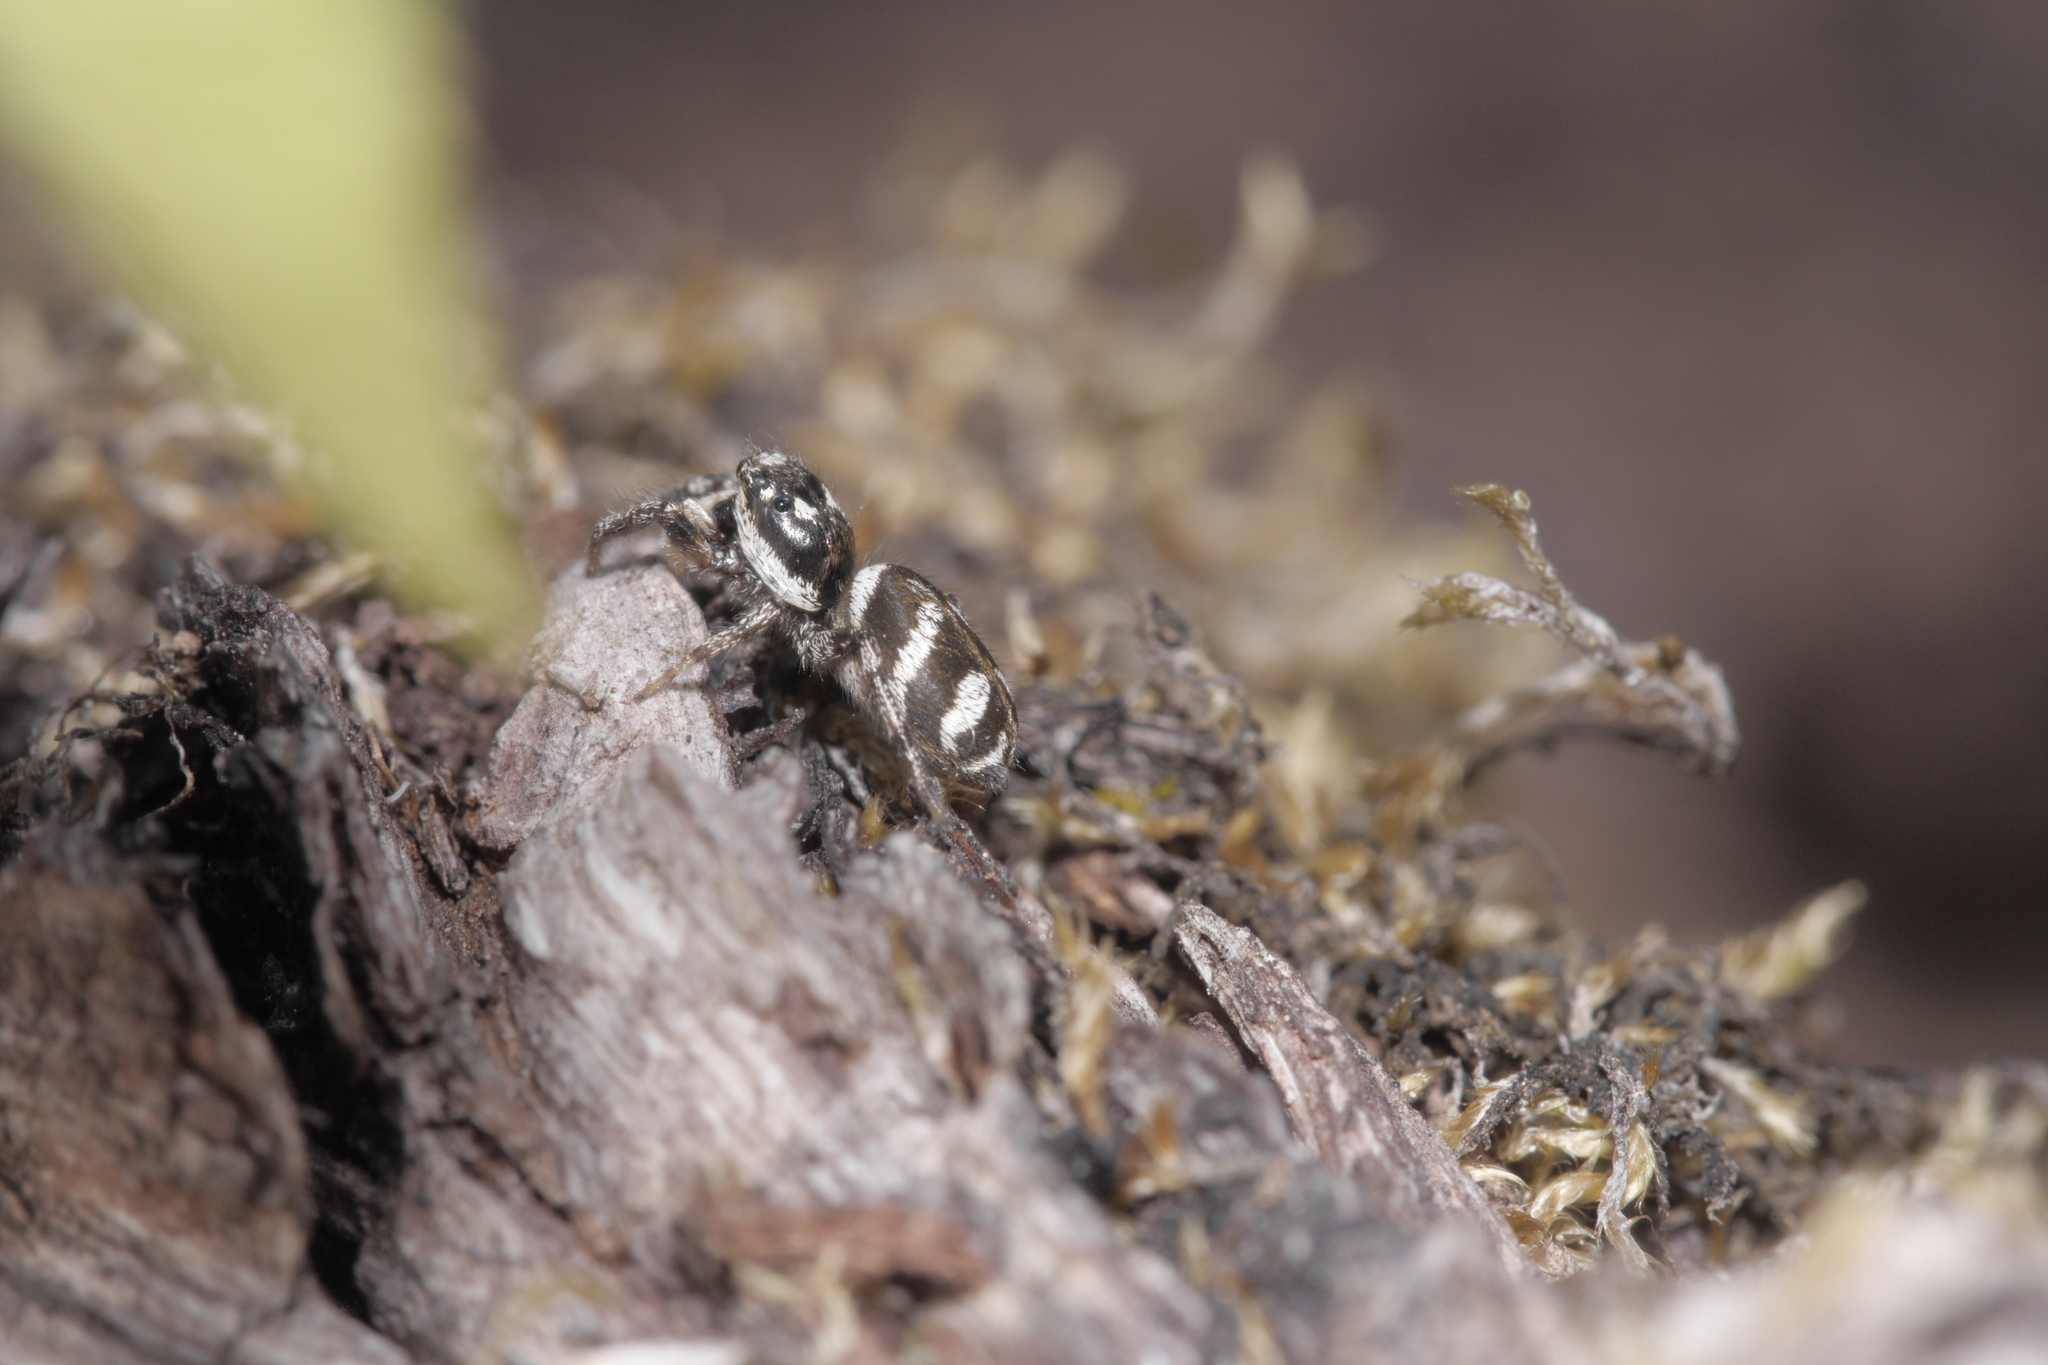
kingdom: Animalia
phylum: Arthropoda
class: Arachnida
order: Araneae
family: Salticidae
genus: Salticus
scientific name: Salticus scenicus
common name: Zebra jumper
